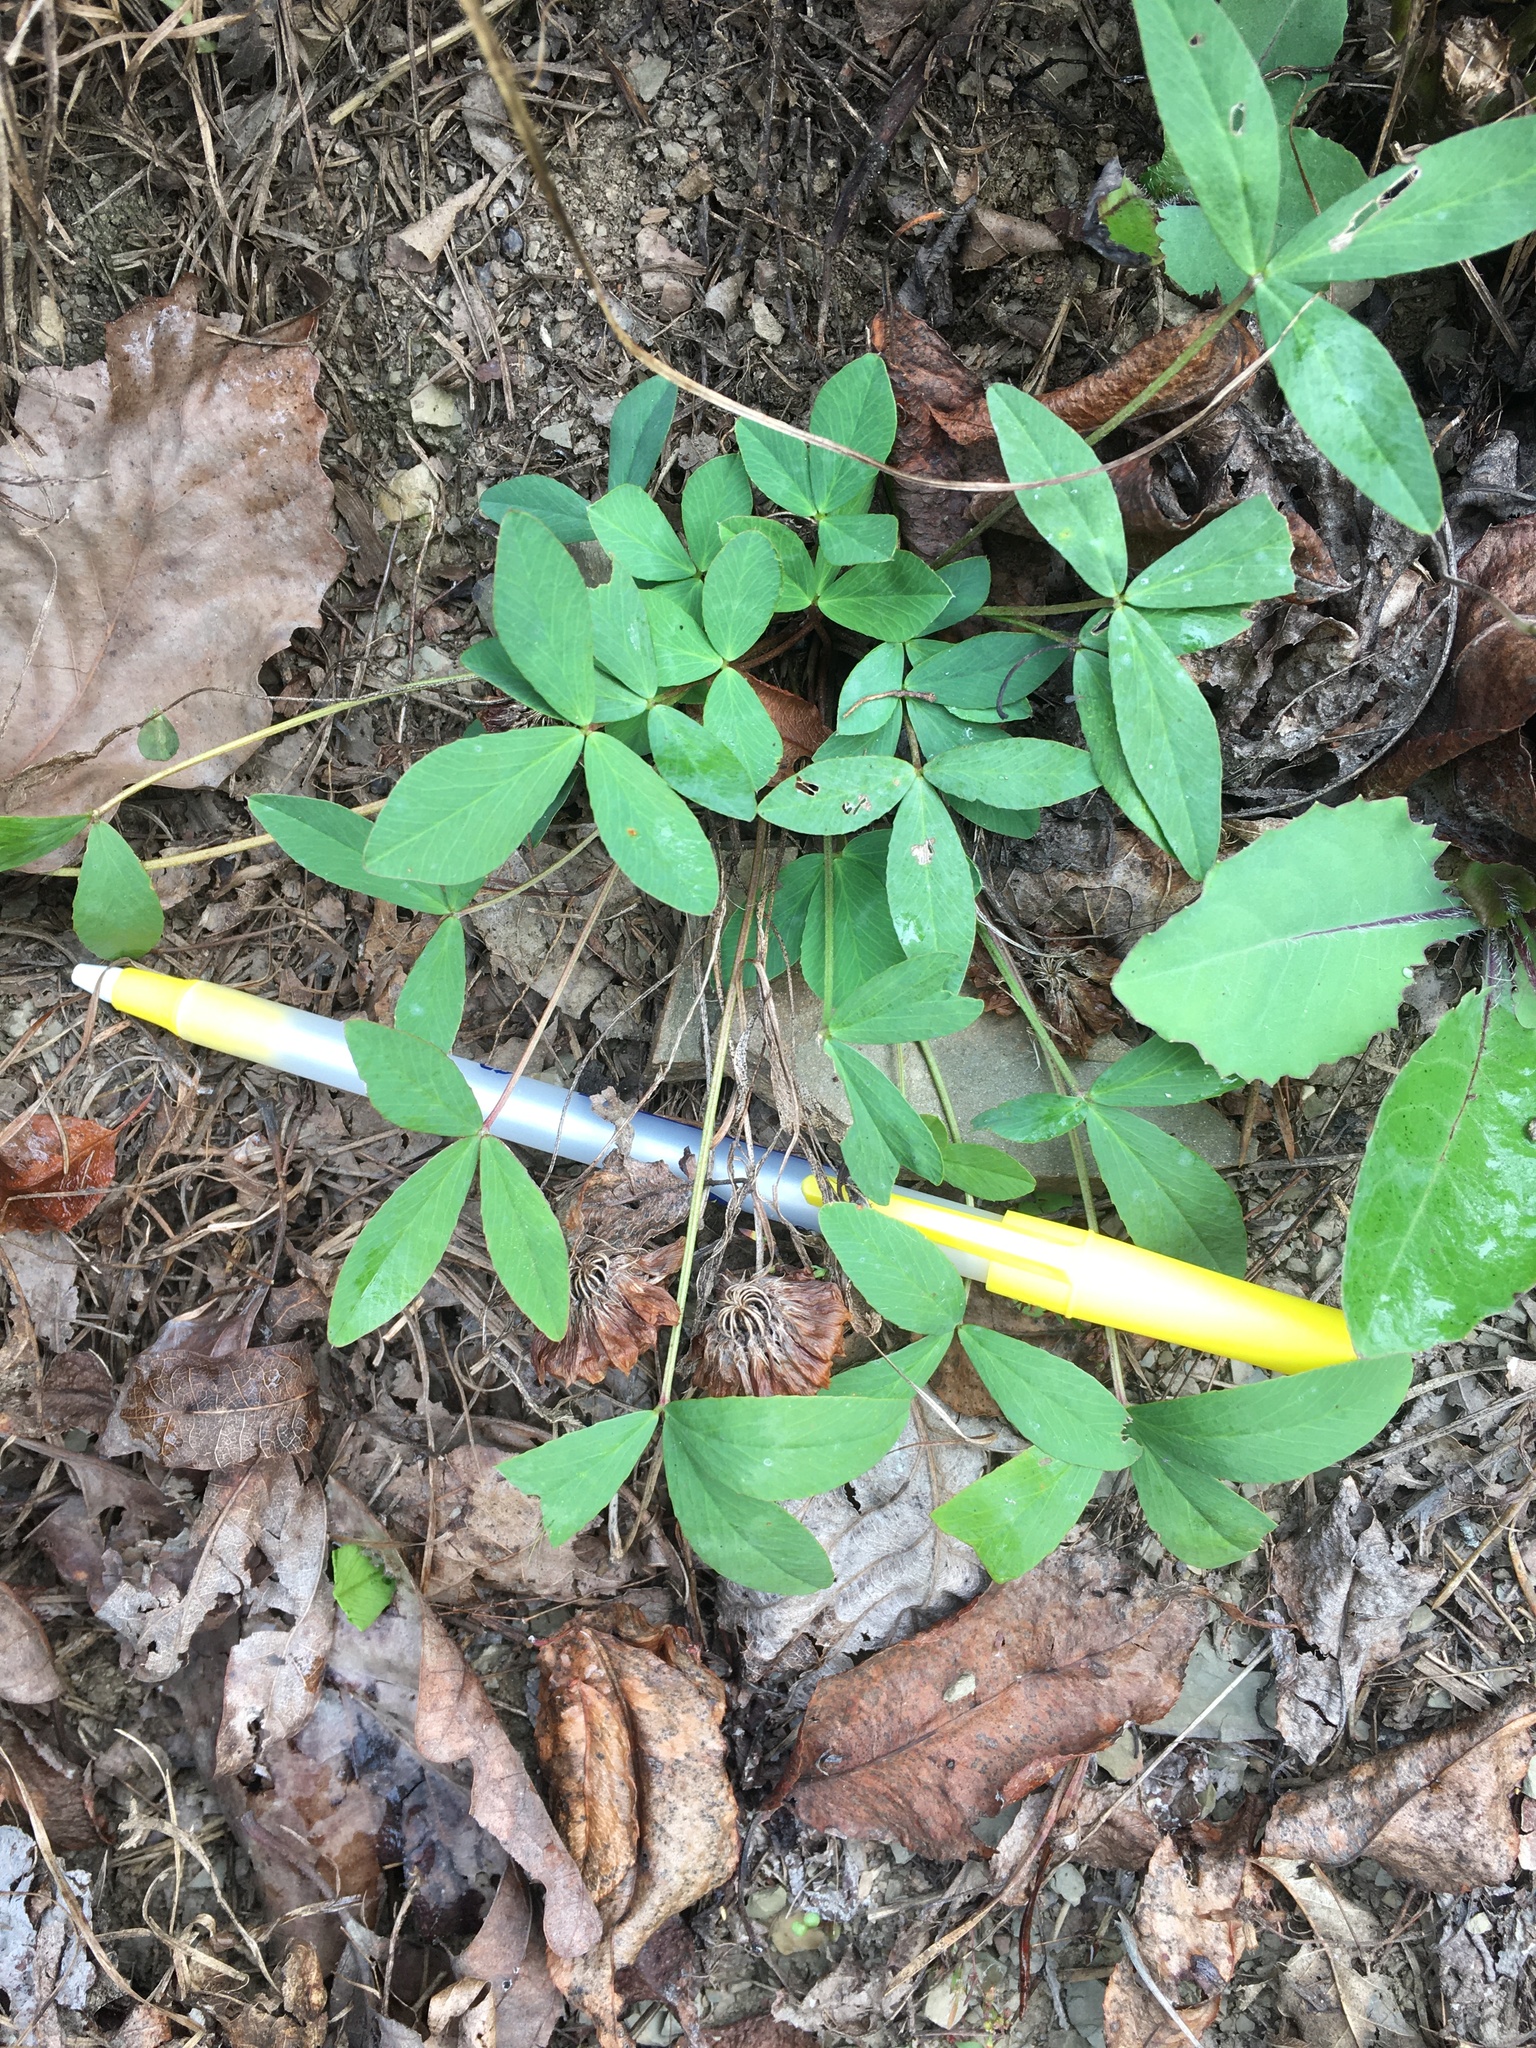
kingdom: Plantae
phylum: Tracheophyta
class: Magnoliopsida
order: Fabales
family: Fabaceae
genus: Trifolium
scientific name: Trifolium virginicum
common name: Kate's mountain clover
